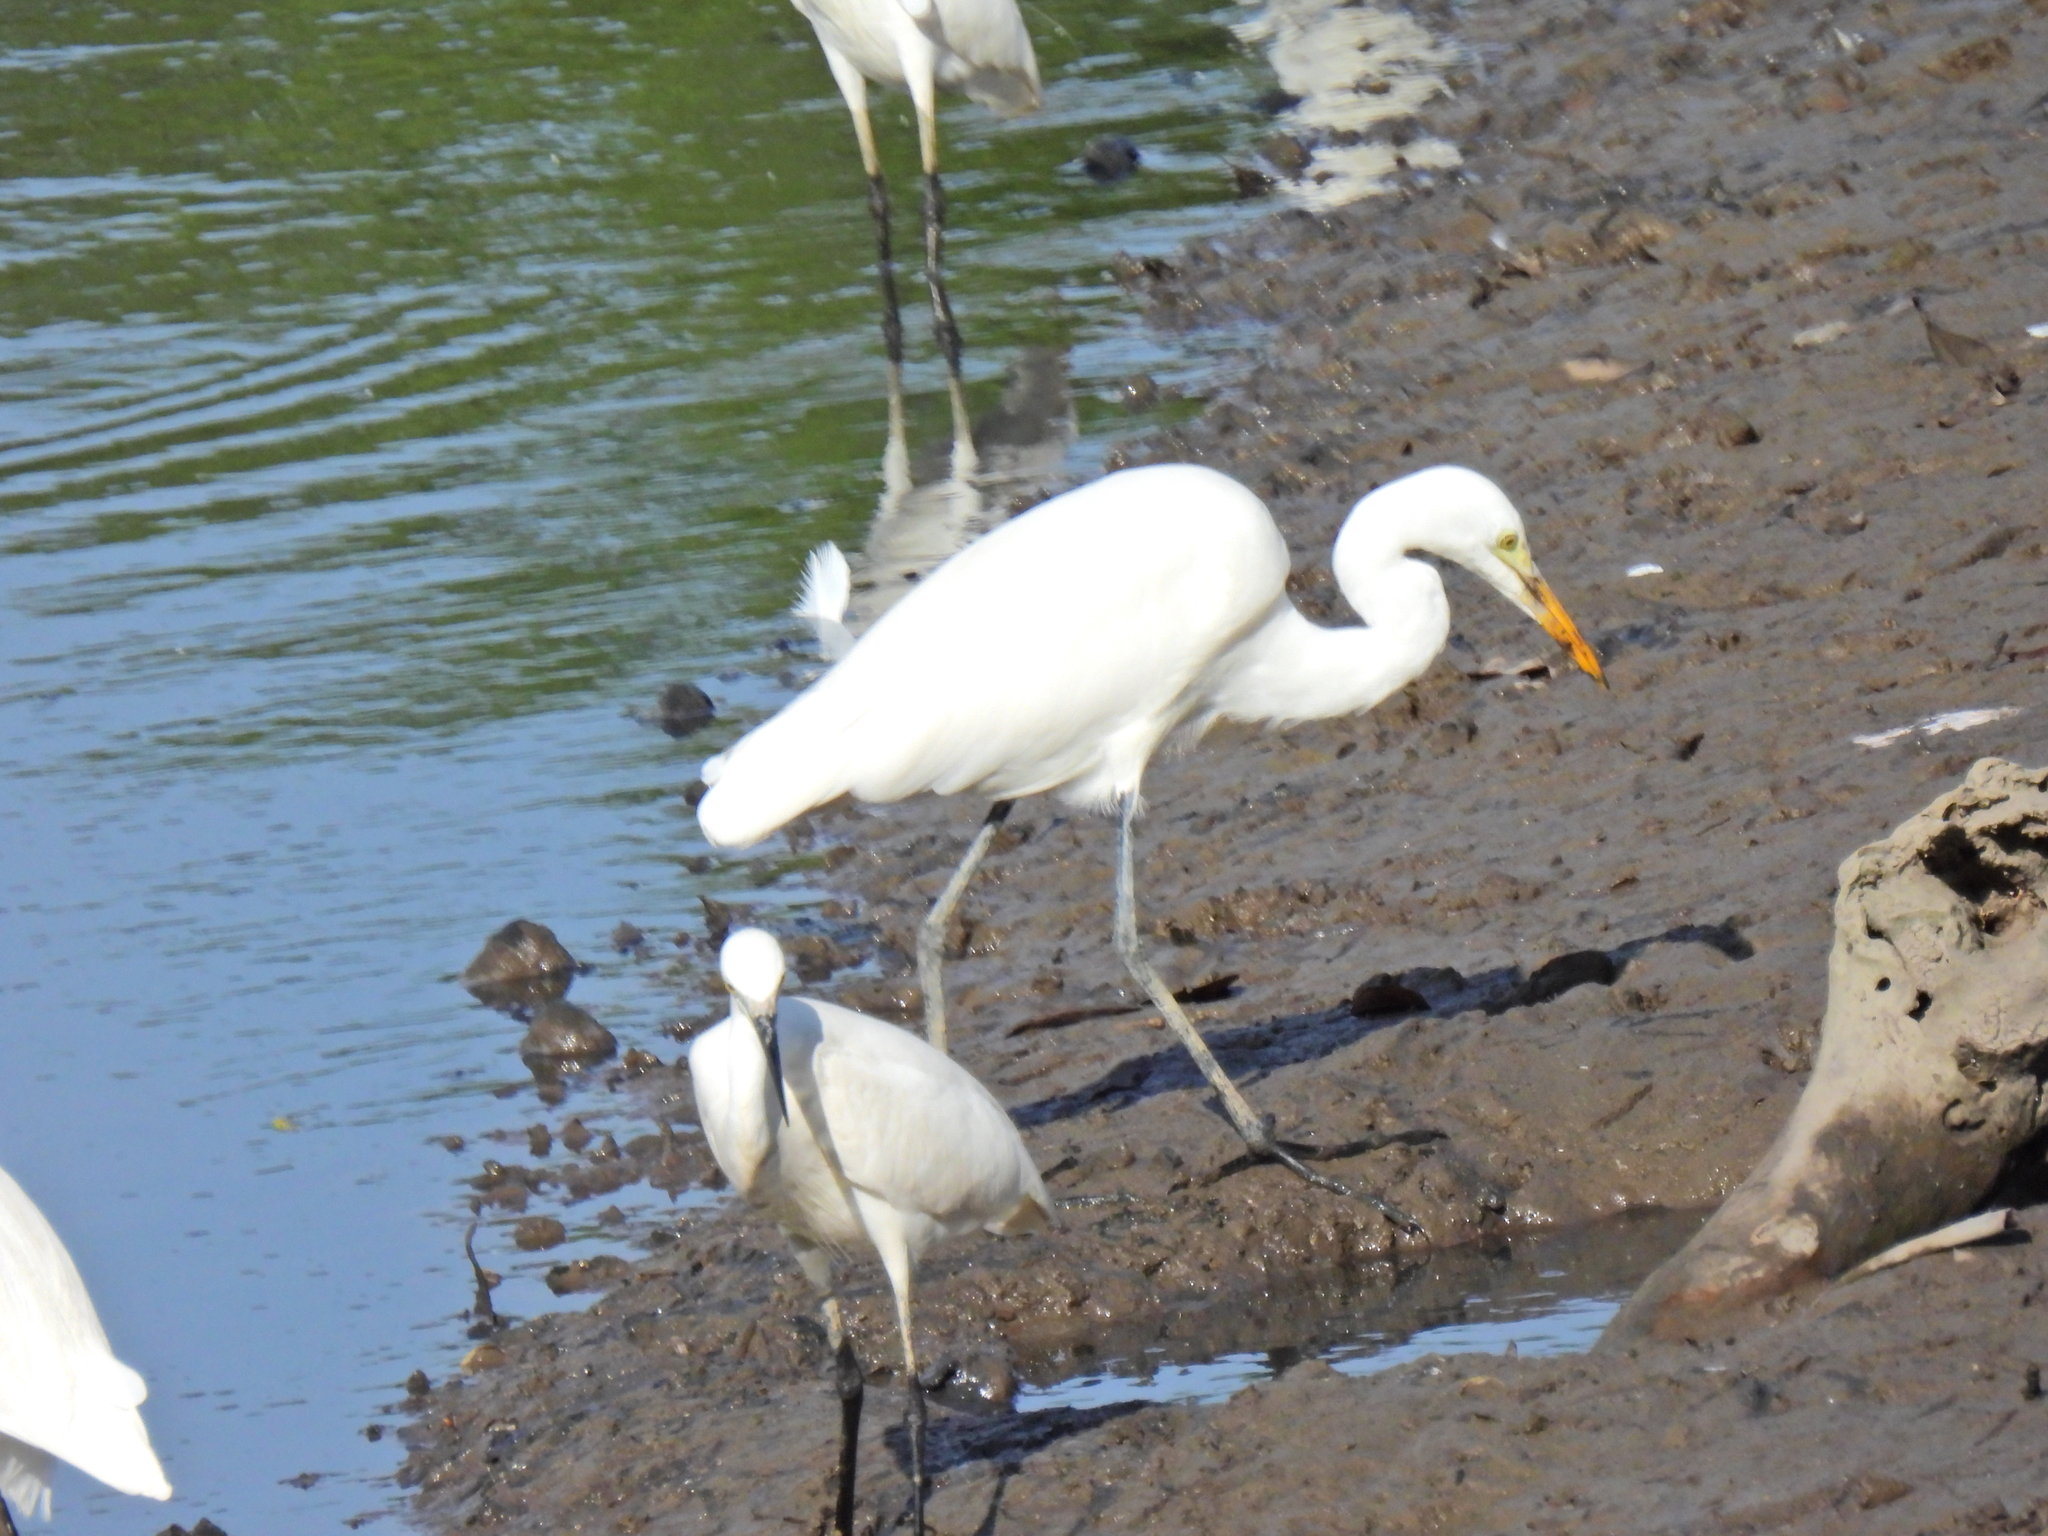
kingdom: Animalia
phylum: Chordata
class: Aves
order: Pelecaniformes
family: Ardeidae
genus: Egretta
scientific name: Egretta garzetta
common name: Little egret
